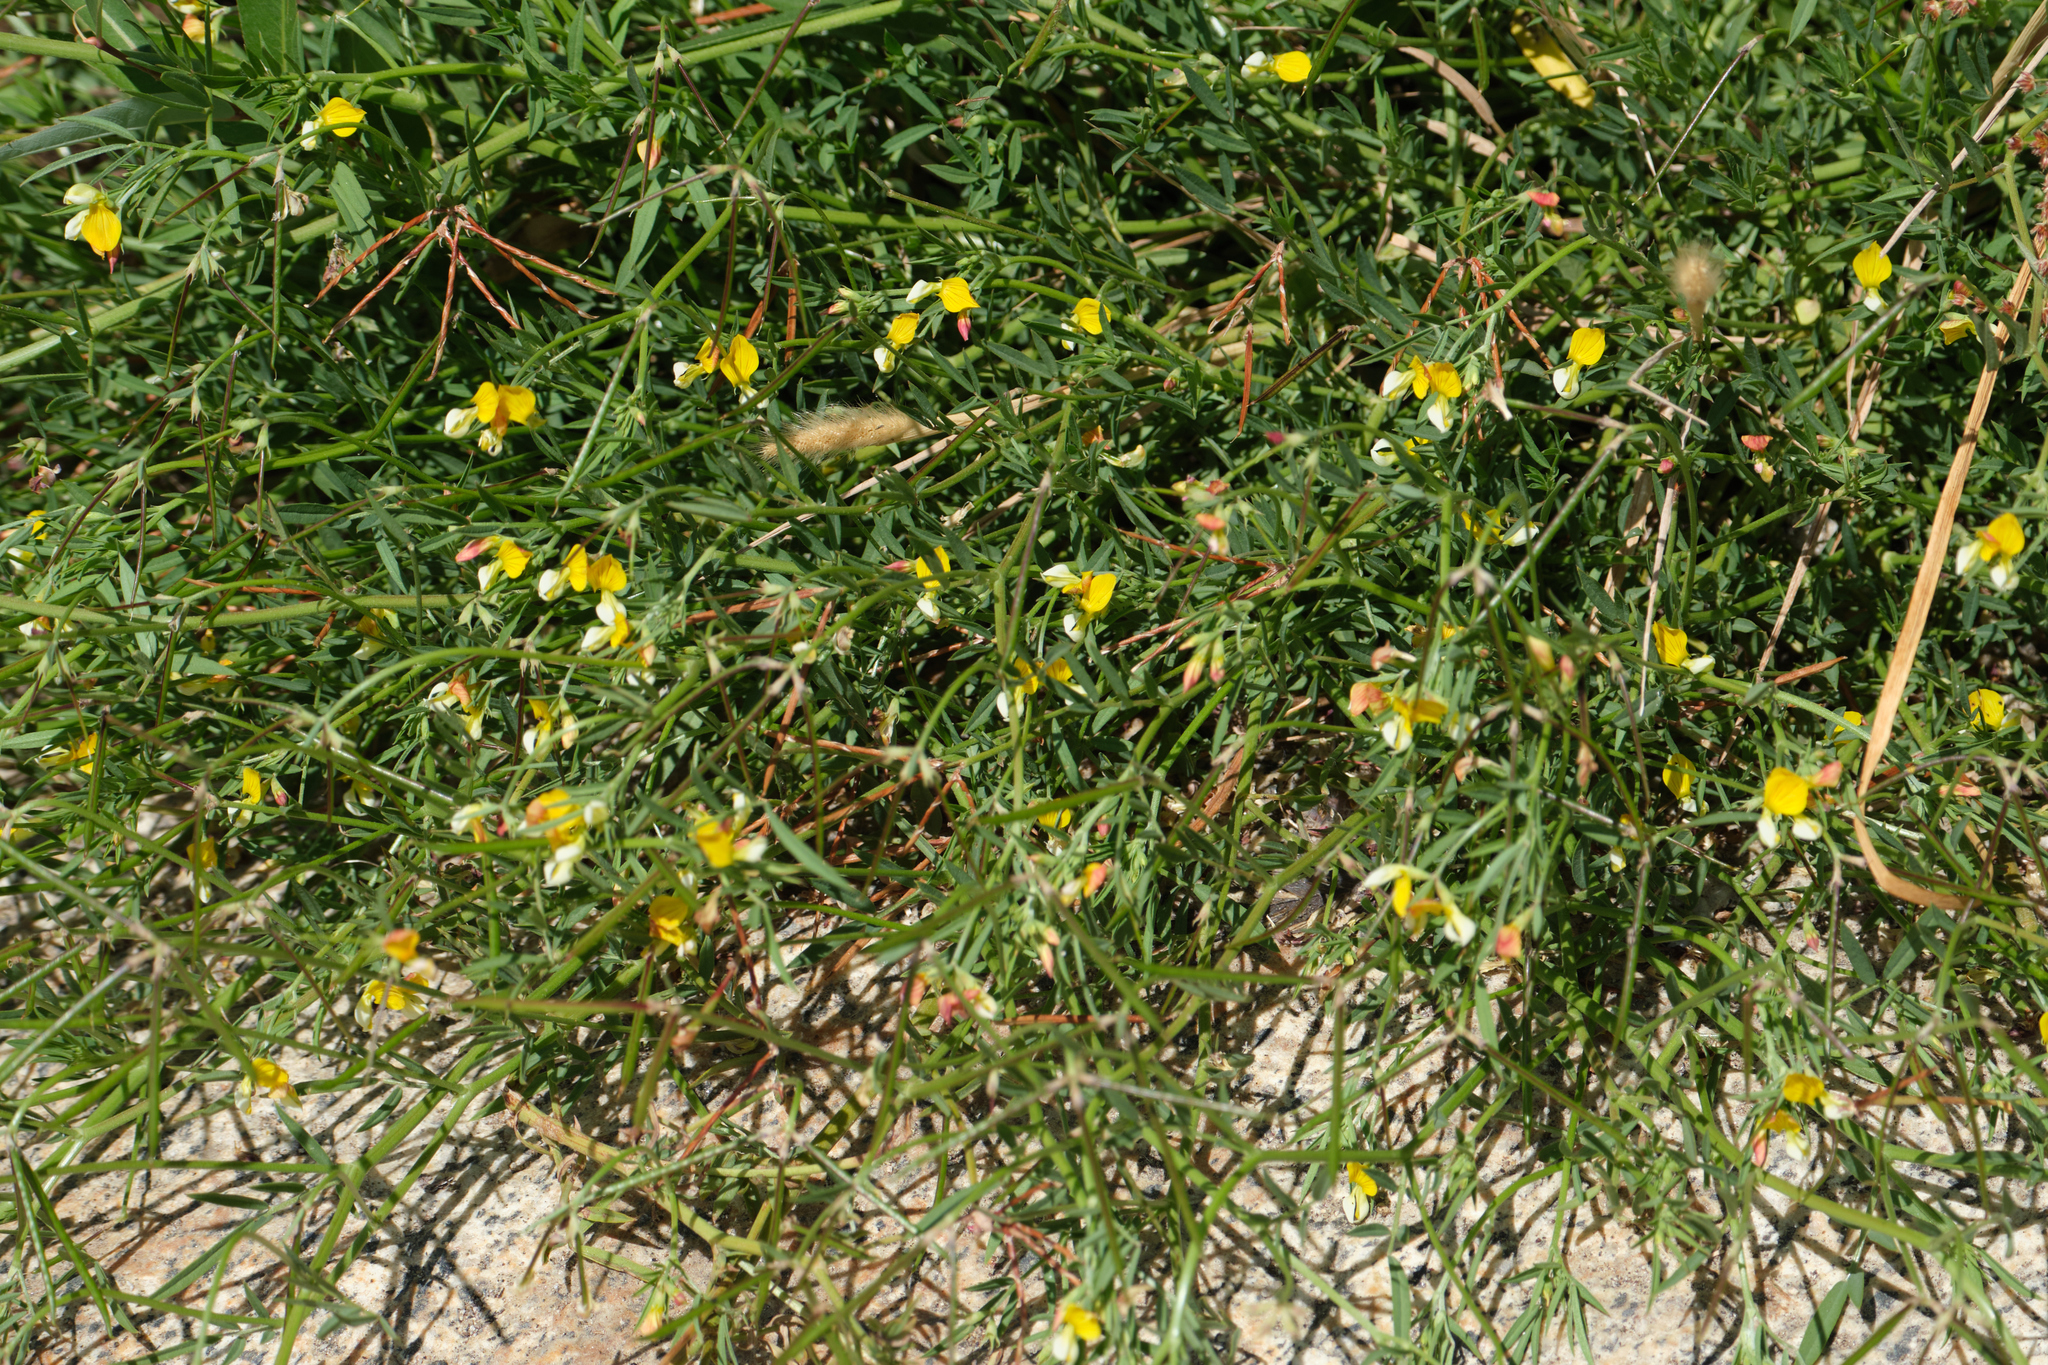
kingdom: Plantae
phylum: Tracheophyta
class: Magnoliopsida
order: Fabales
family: Fabaceae
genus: Hosackia
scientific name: Hosackia oblongifolia
